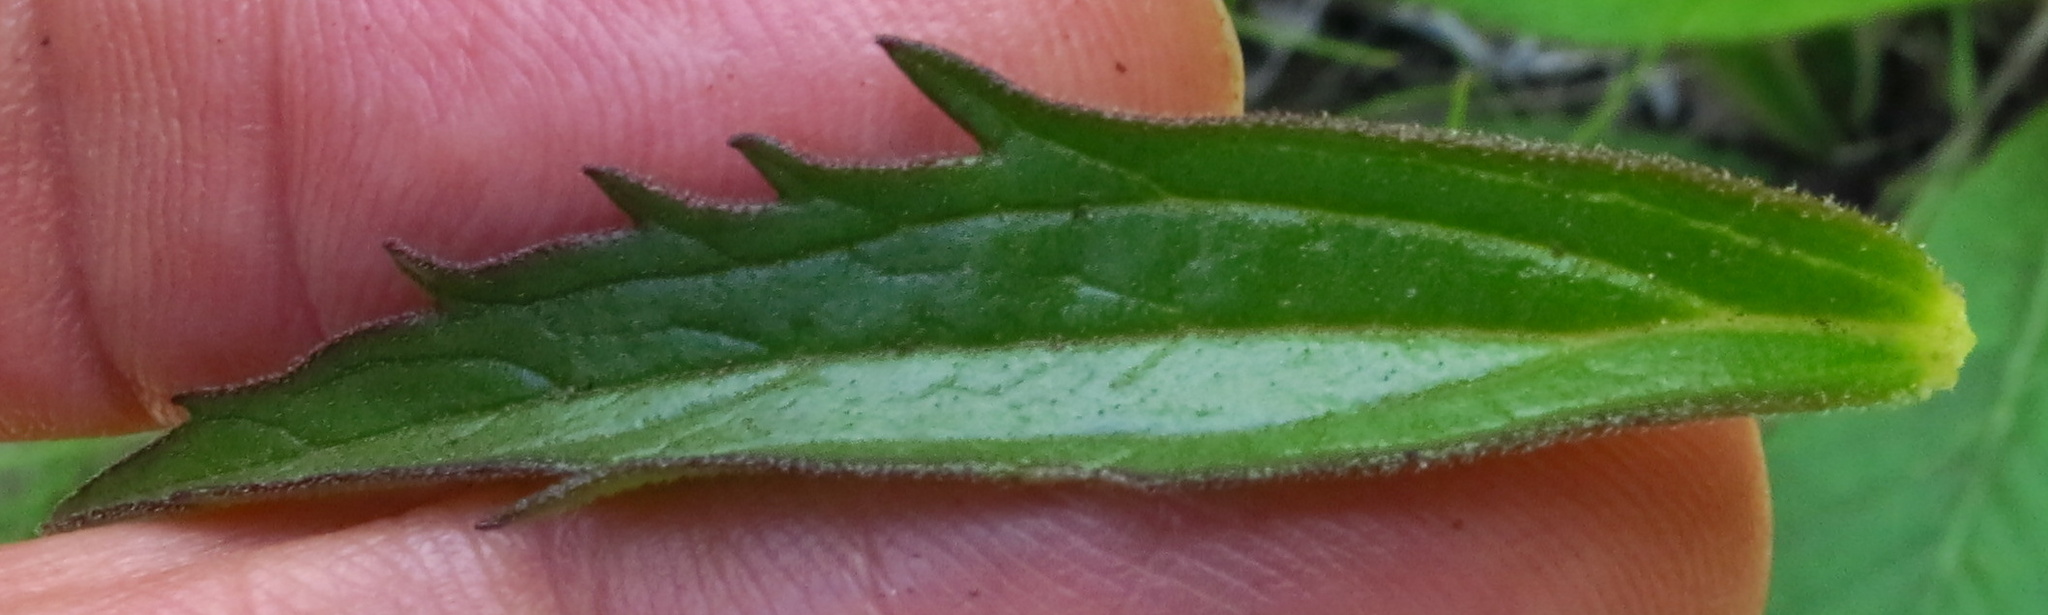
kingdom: Plantae
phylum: Tracheophyta
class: Magnoliopsida
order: Lamiales
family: Orobanchaceae
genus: Cycnium
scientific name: Cycnium racemosum
